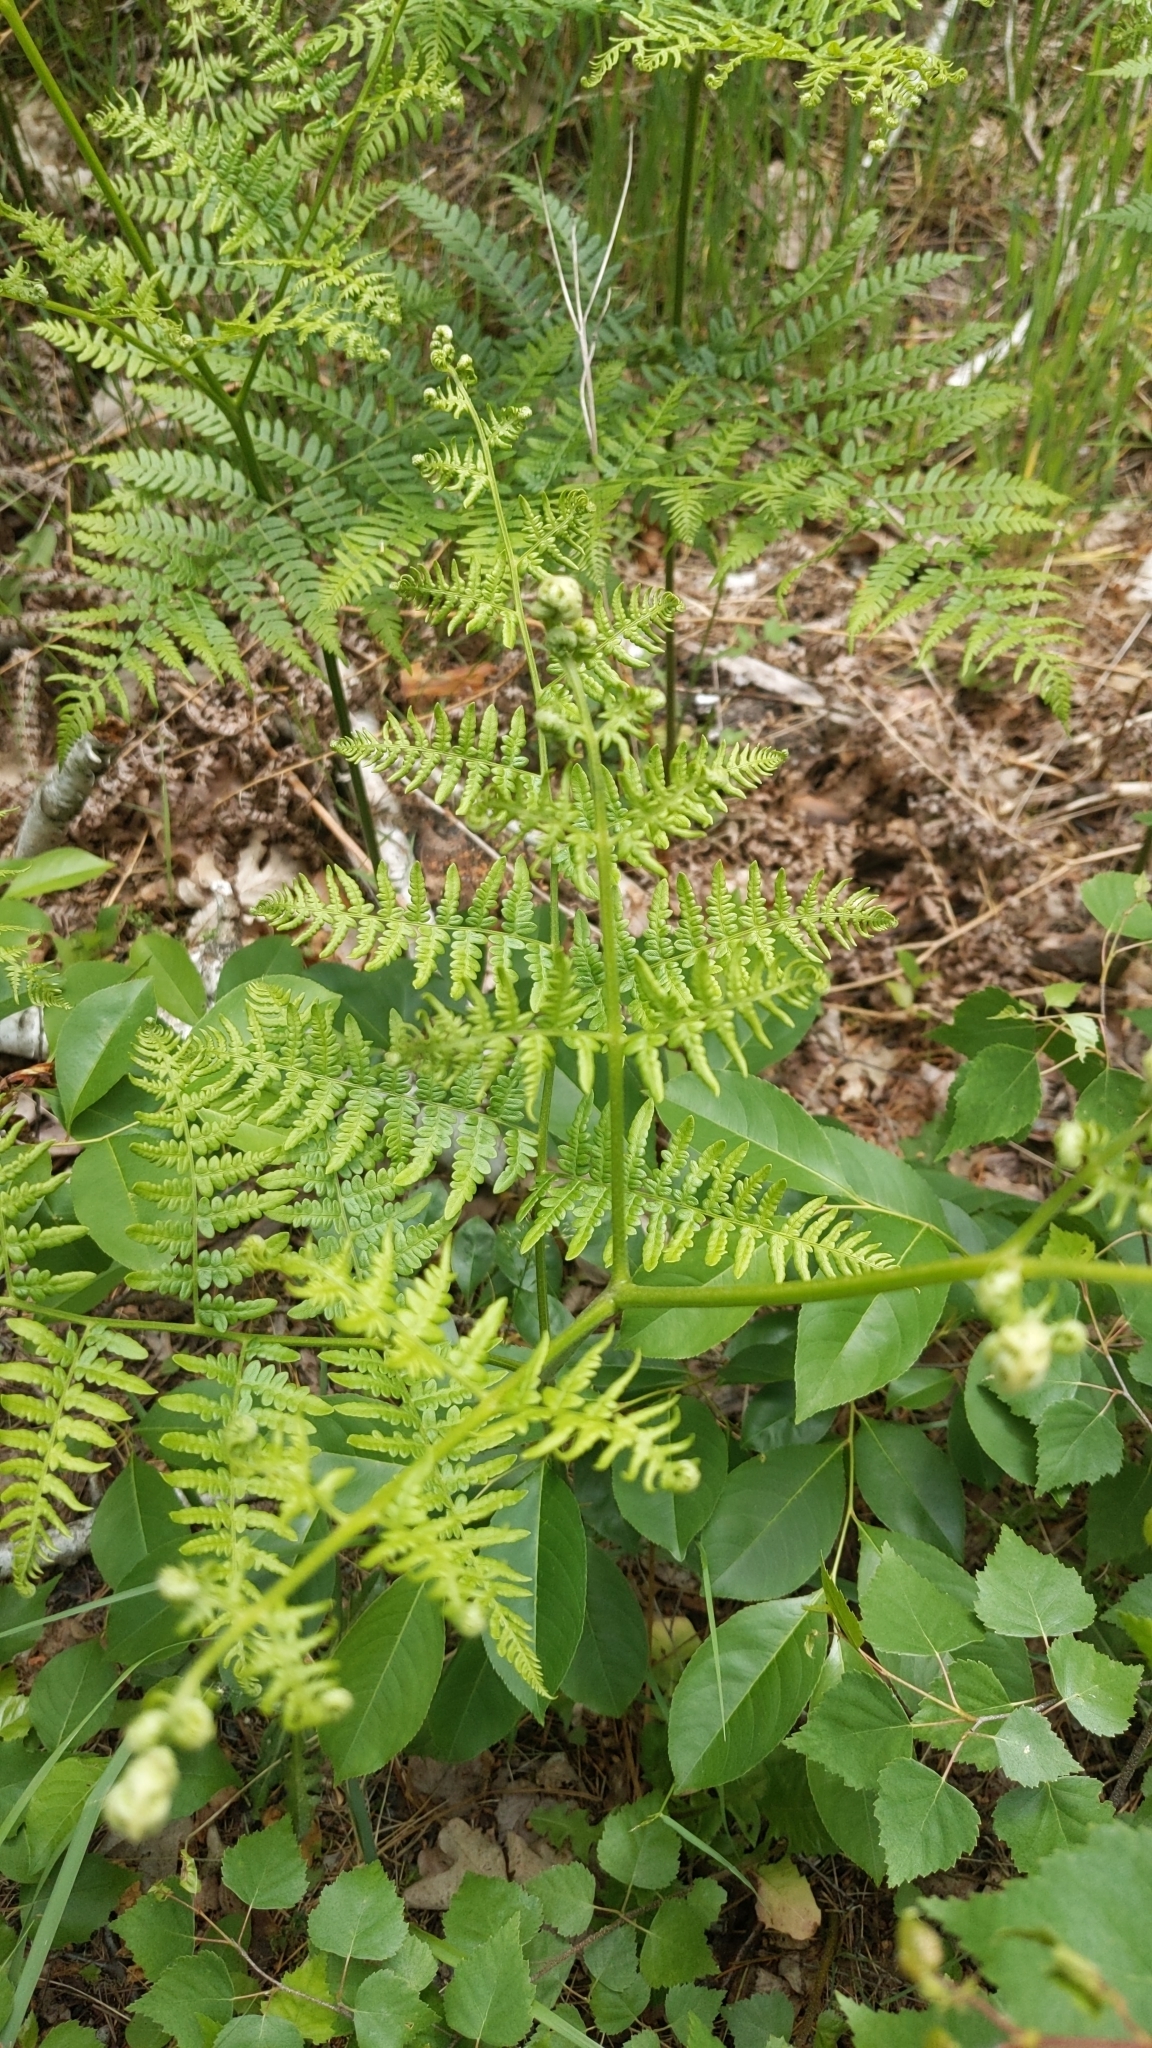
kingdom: Plantae
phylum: Tracheophyta
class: Polypodiopsida
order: Polypodiales
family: Dennstaedtiaceae
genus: Pteridium
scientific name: Pteridium aquilinum
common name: Bracken
